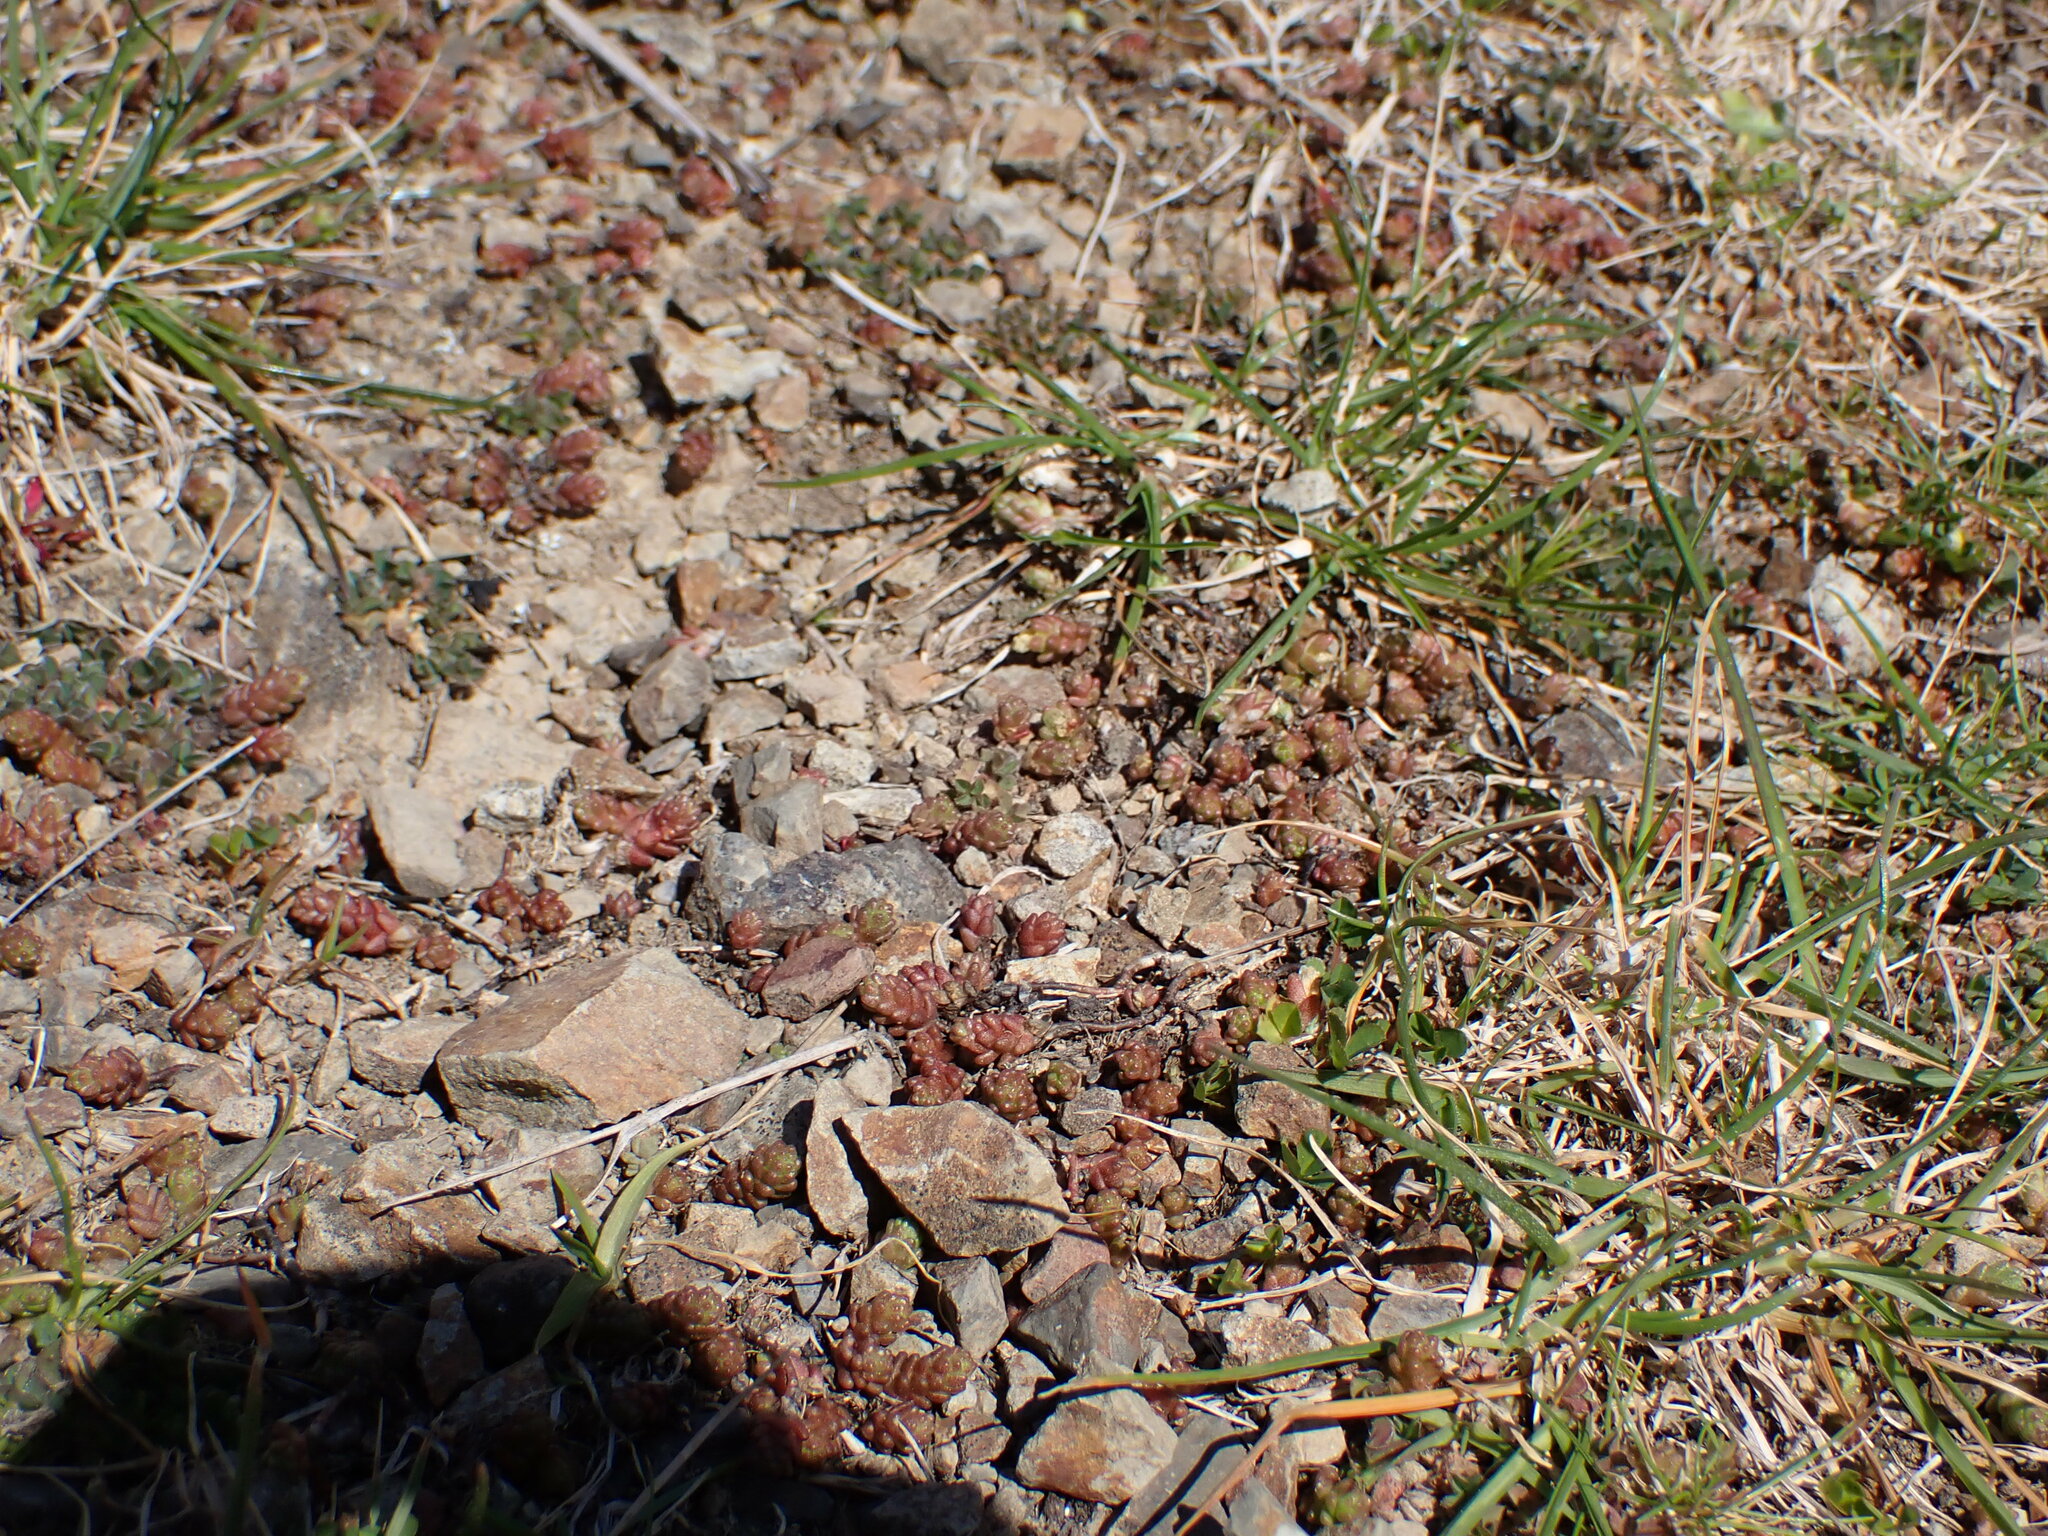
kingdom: Plantae
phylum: Tracheophyta
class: Magnoliopsida
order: Saxifragales
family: Crassulaceae
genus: Sedum
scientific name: Sedum acre
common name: Biting stonecrop
